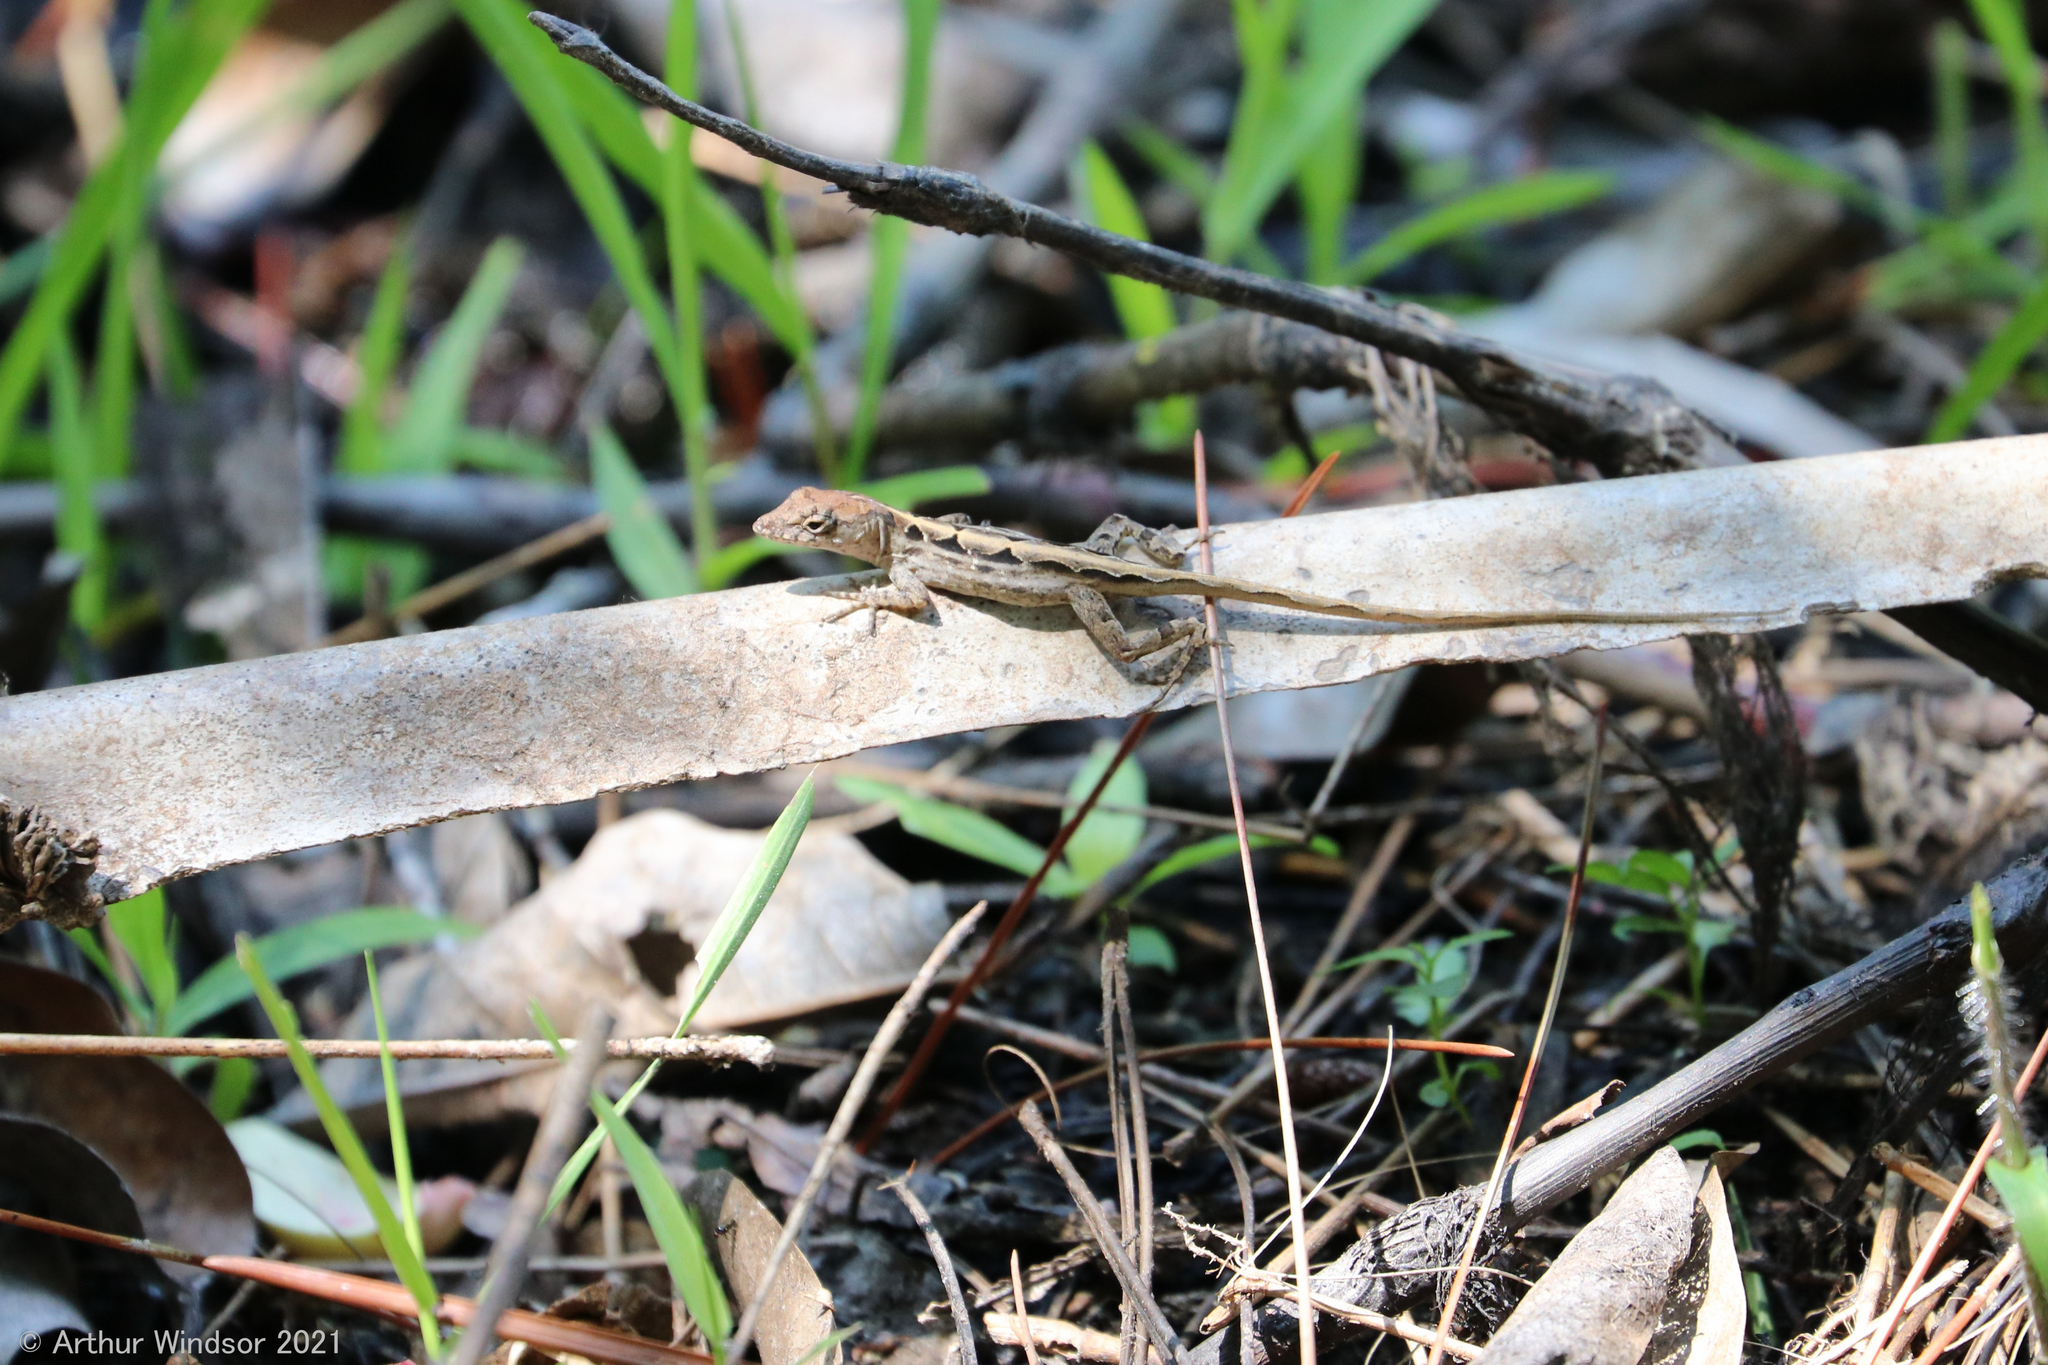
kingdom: Animalia
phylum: Chordata
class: Squamata
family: Dactyloidae
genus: Anolis
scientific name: Anolis sagrei
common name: Brown anole
